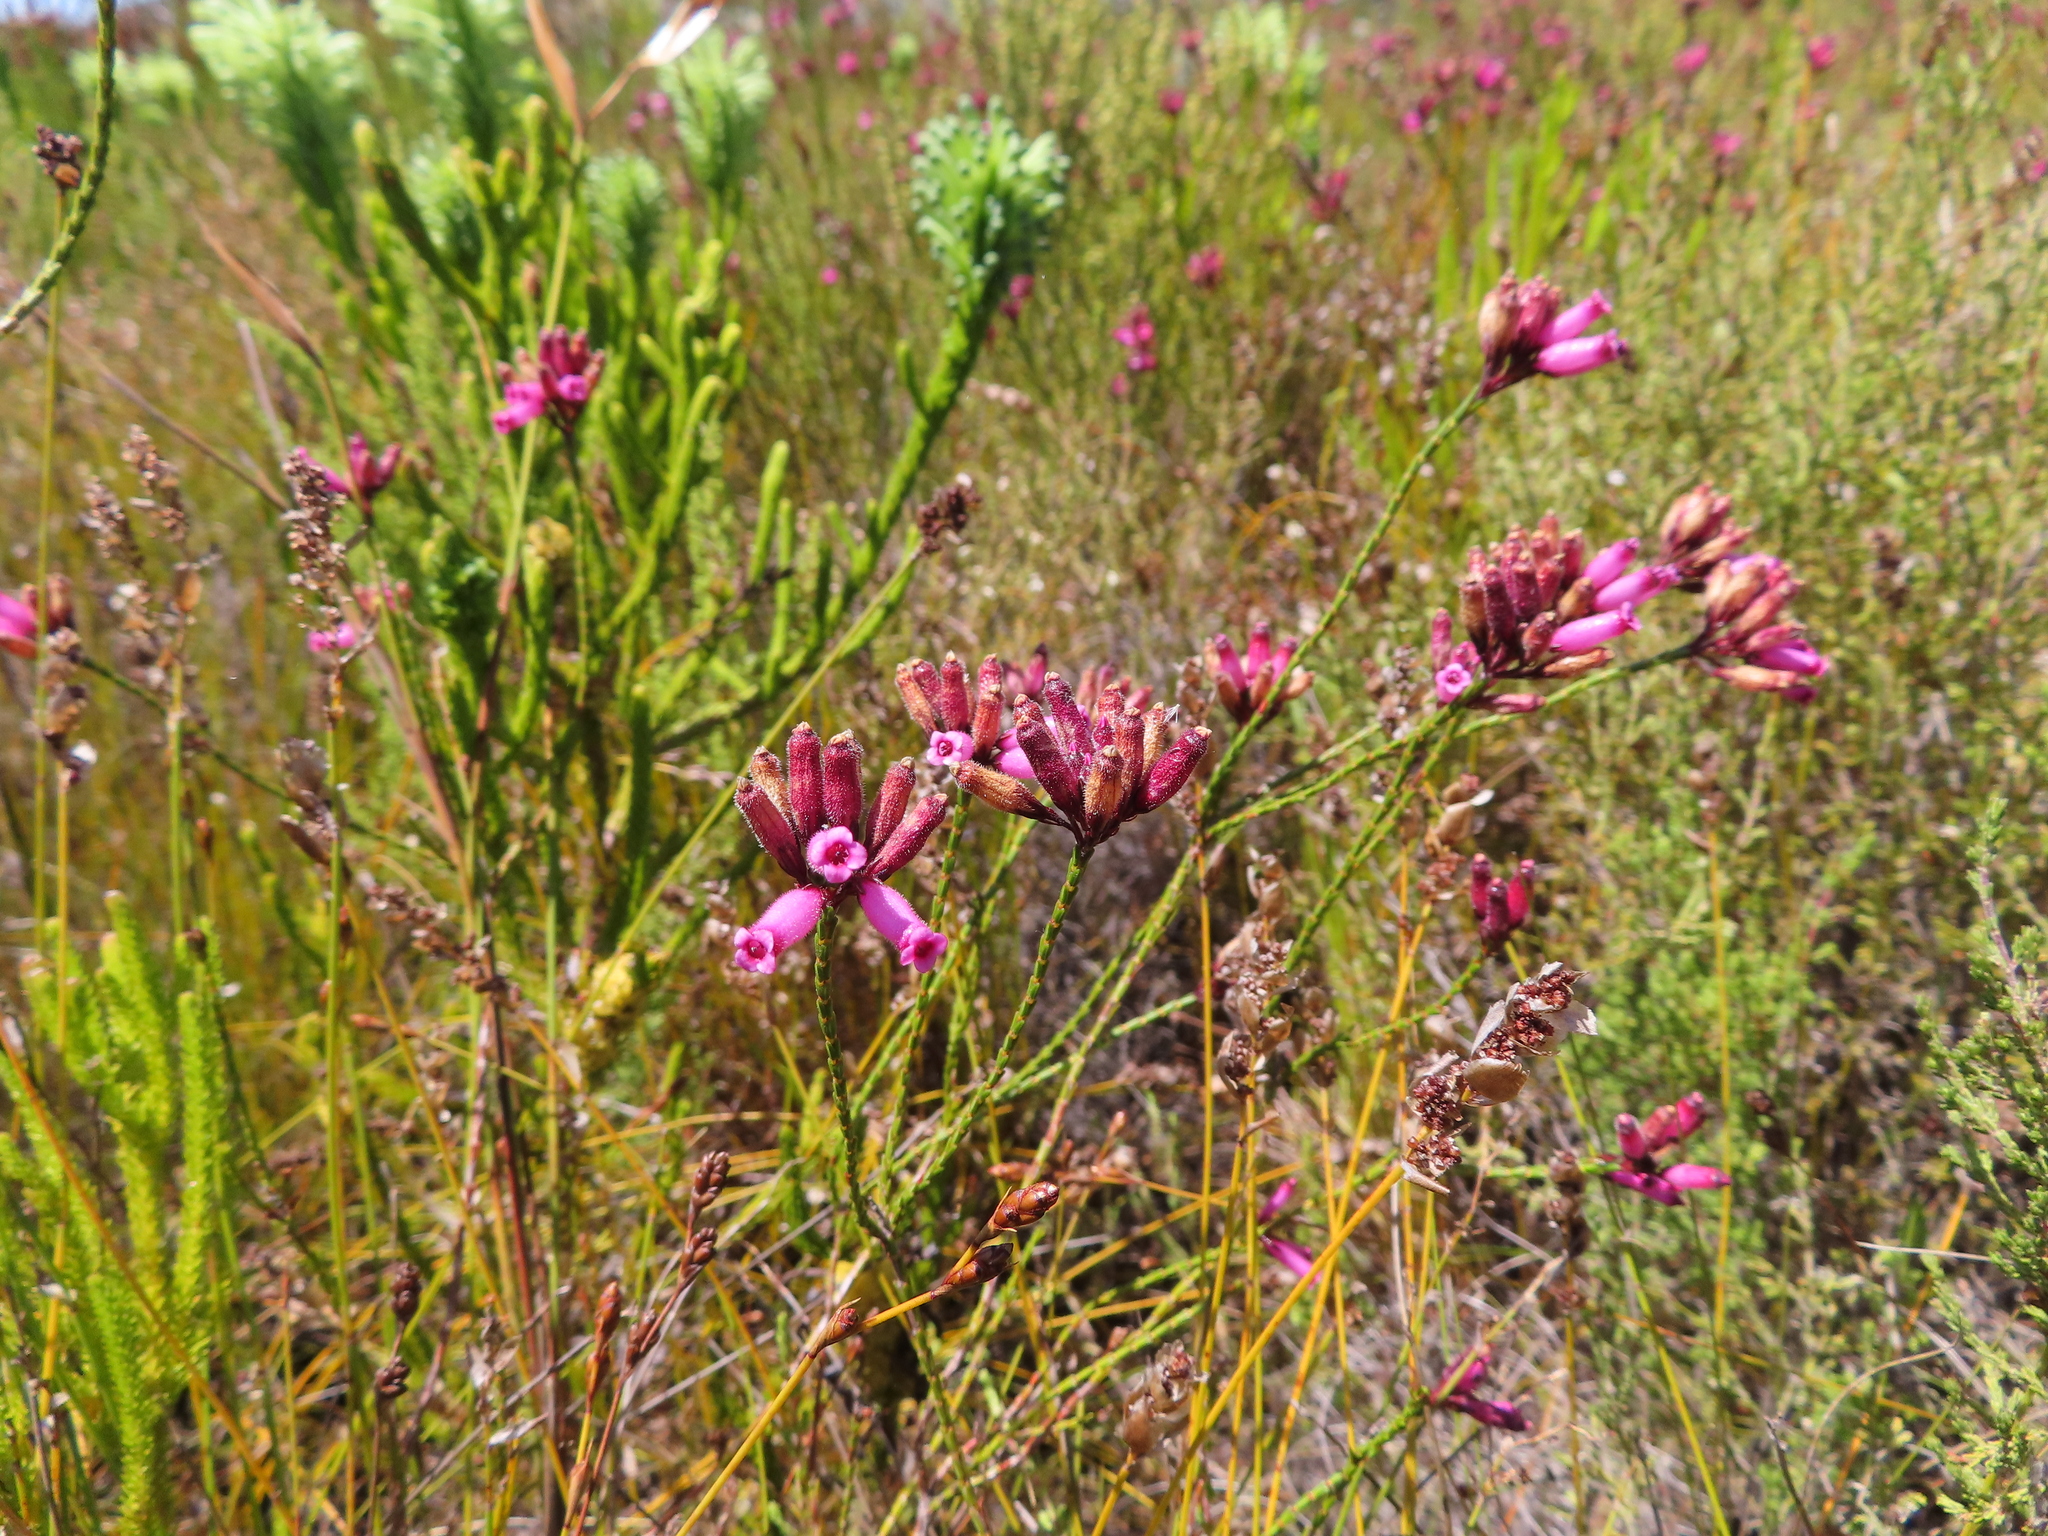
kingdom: Plantae
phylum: Tracheophyta
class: Magnoliopsida
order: Ericales
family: Ericaceae
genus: Erica
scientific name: Erica cristata
